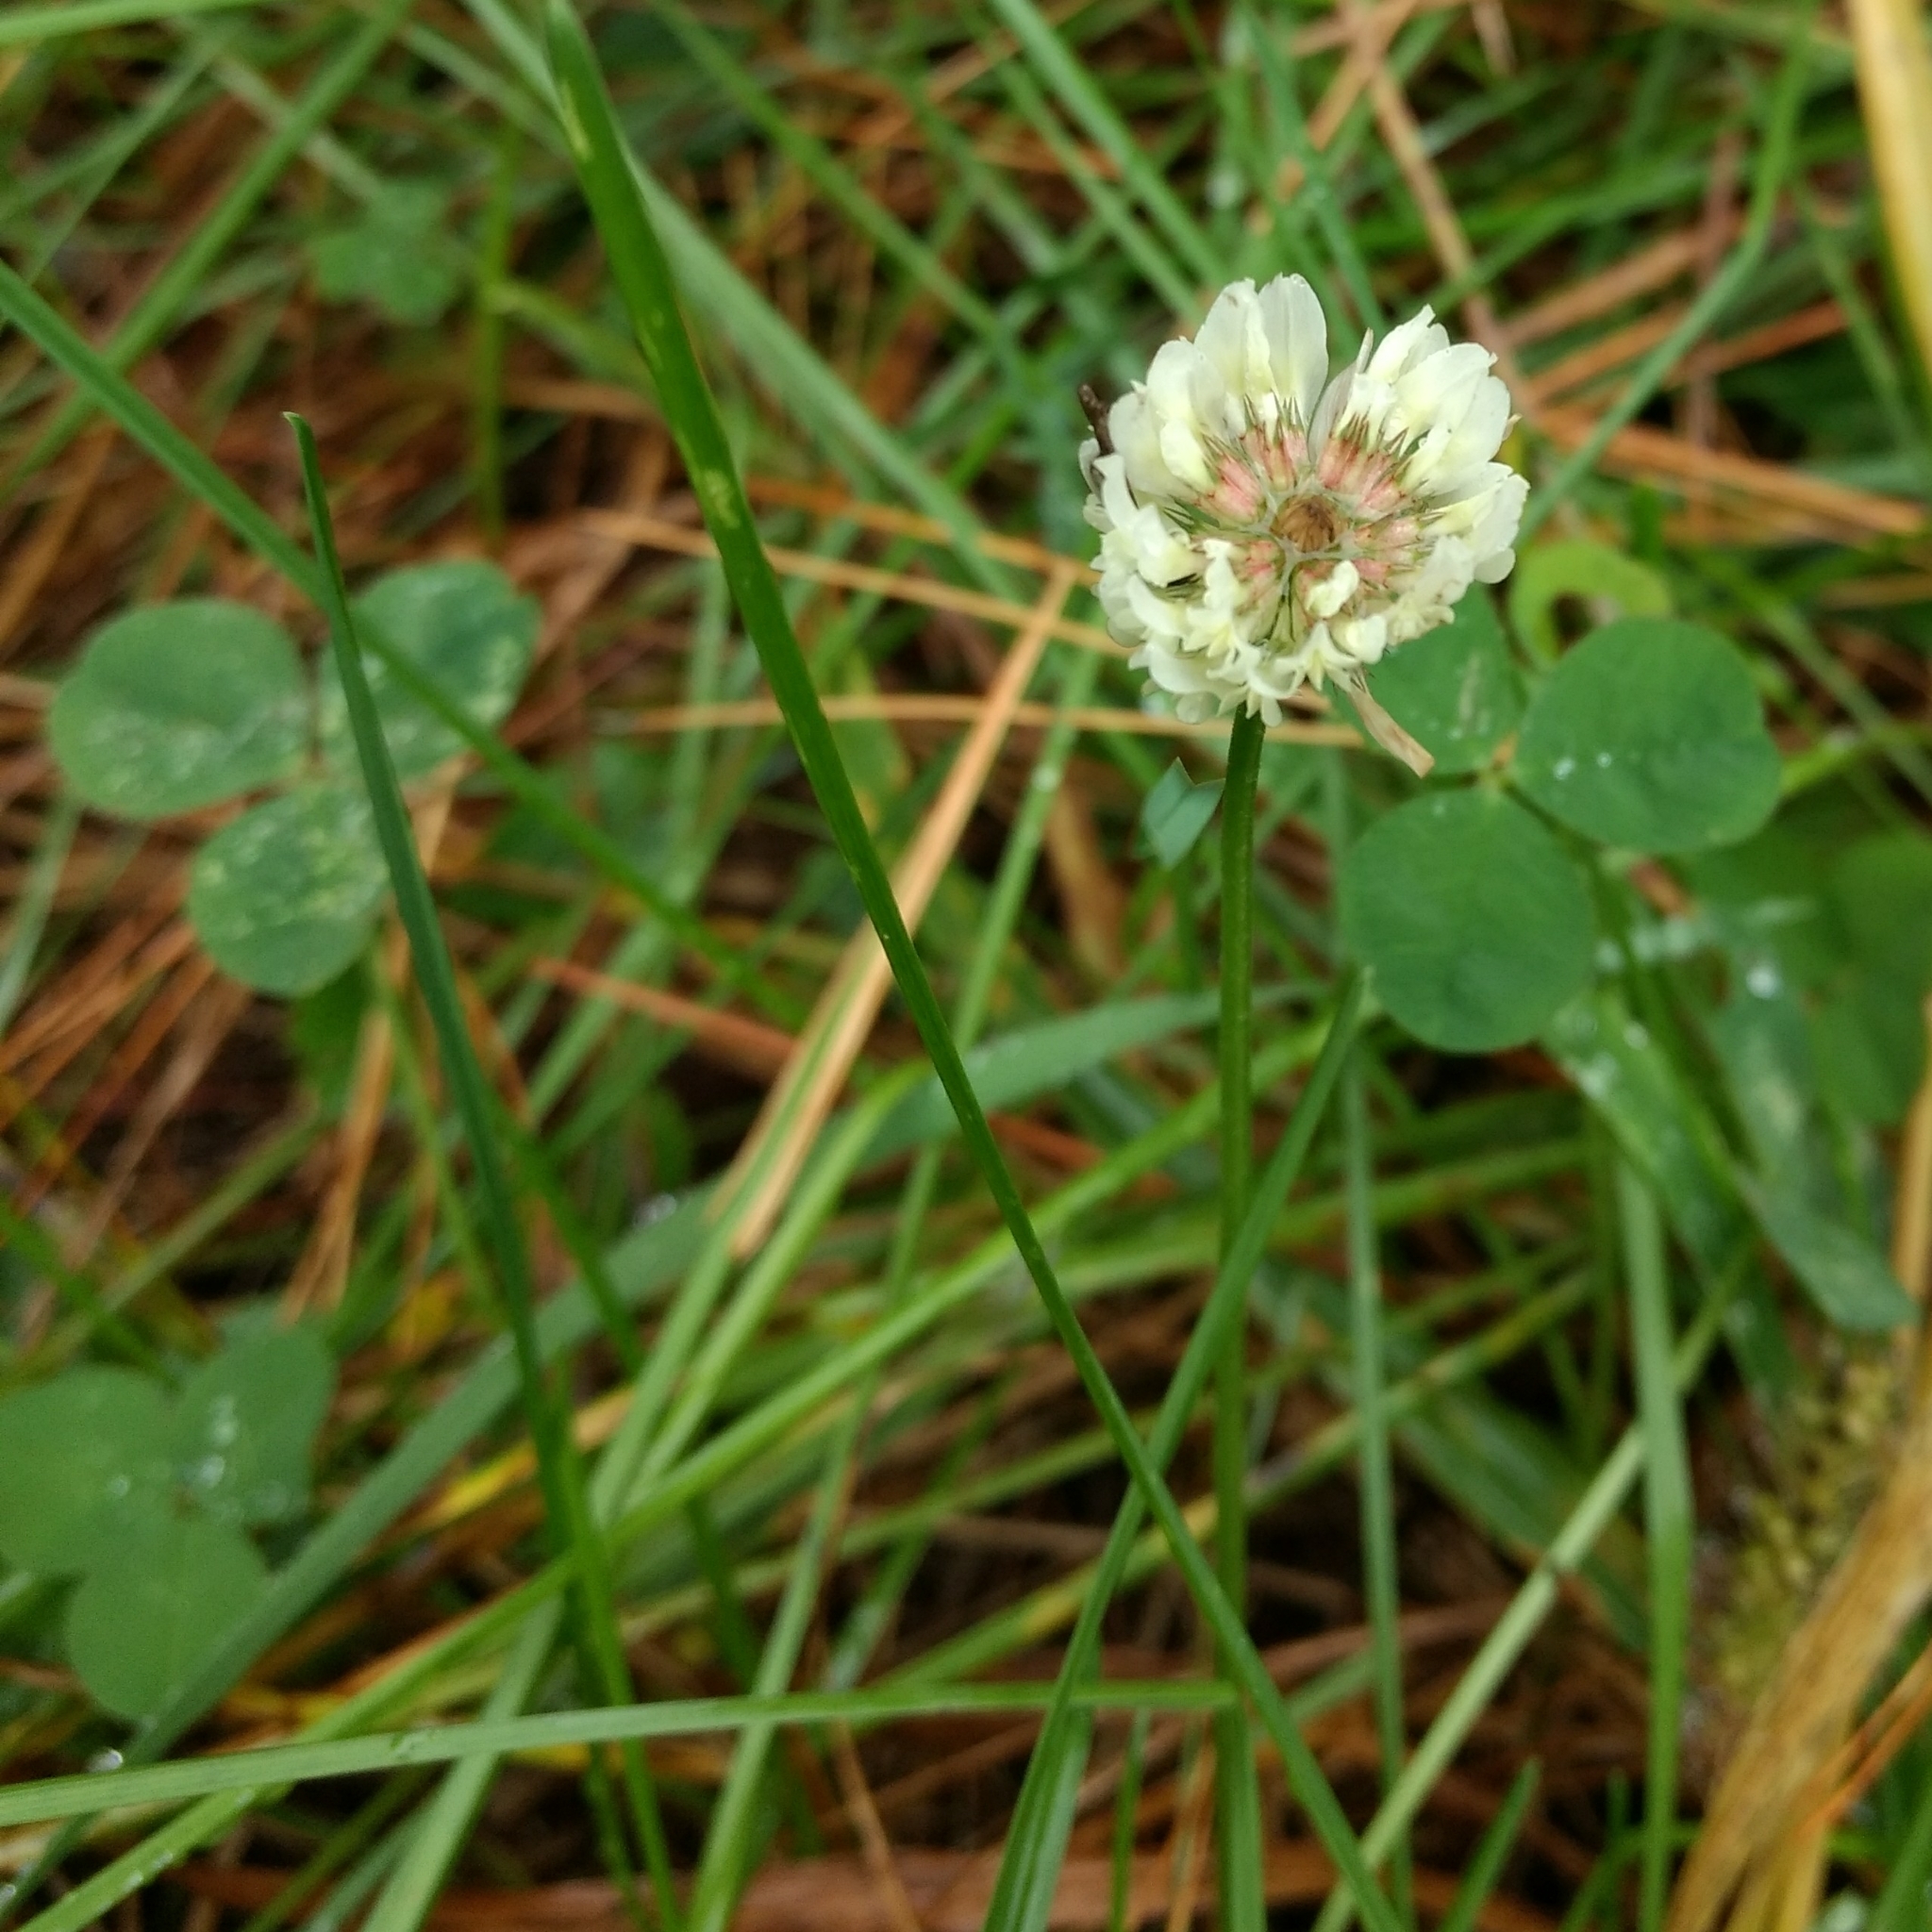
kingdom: Plantae
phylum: Tracheophyta
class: Magnoliopsida
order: Fabales
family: Fabaceae
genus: Trifolium
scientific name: Trifolium repens
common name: White clover
